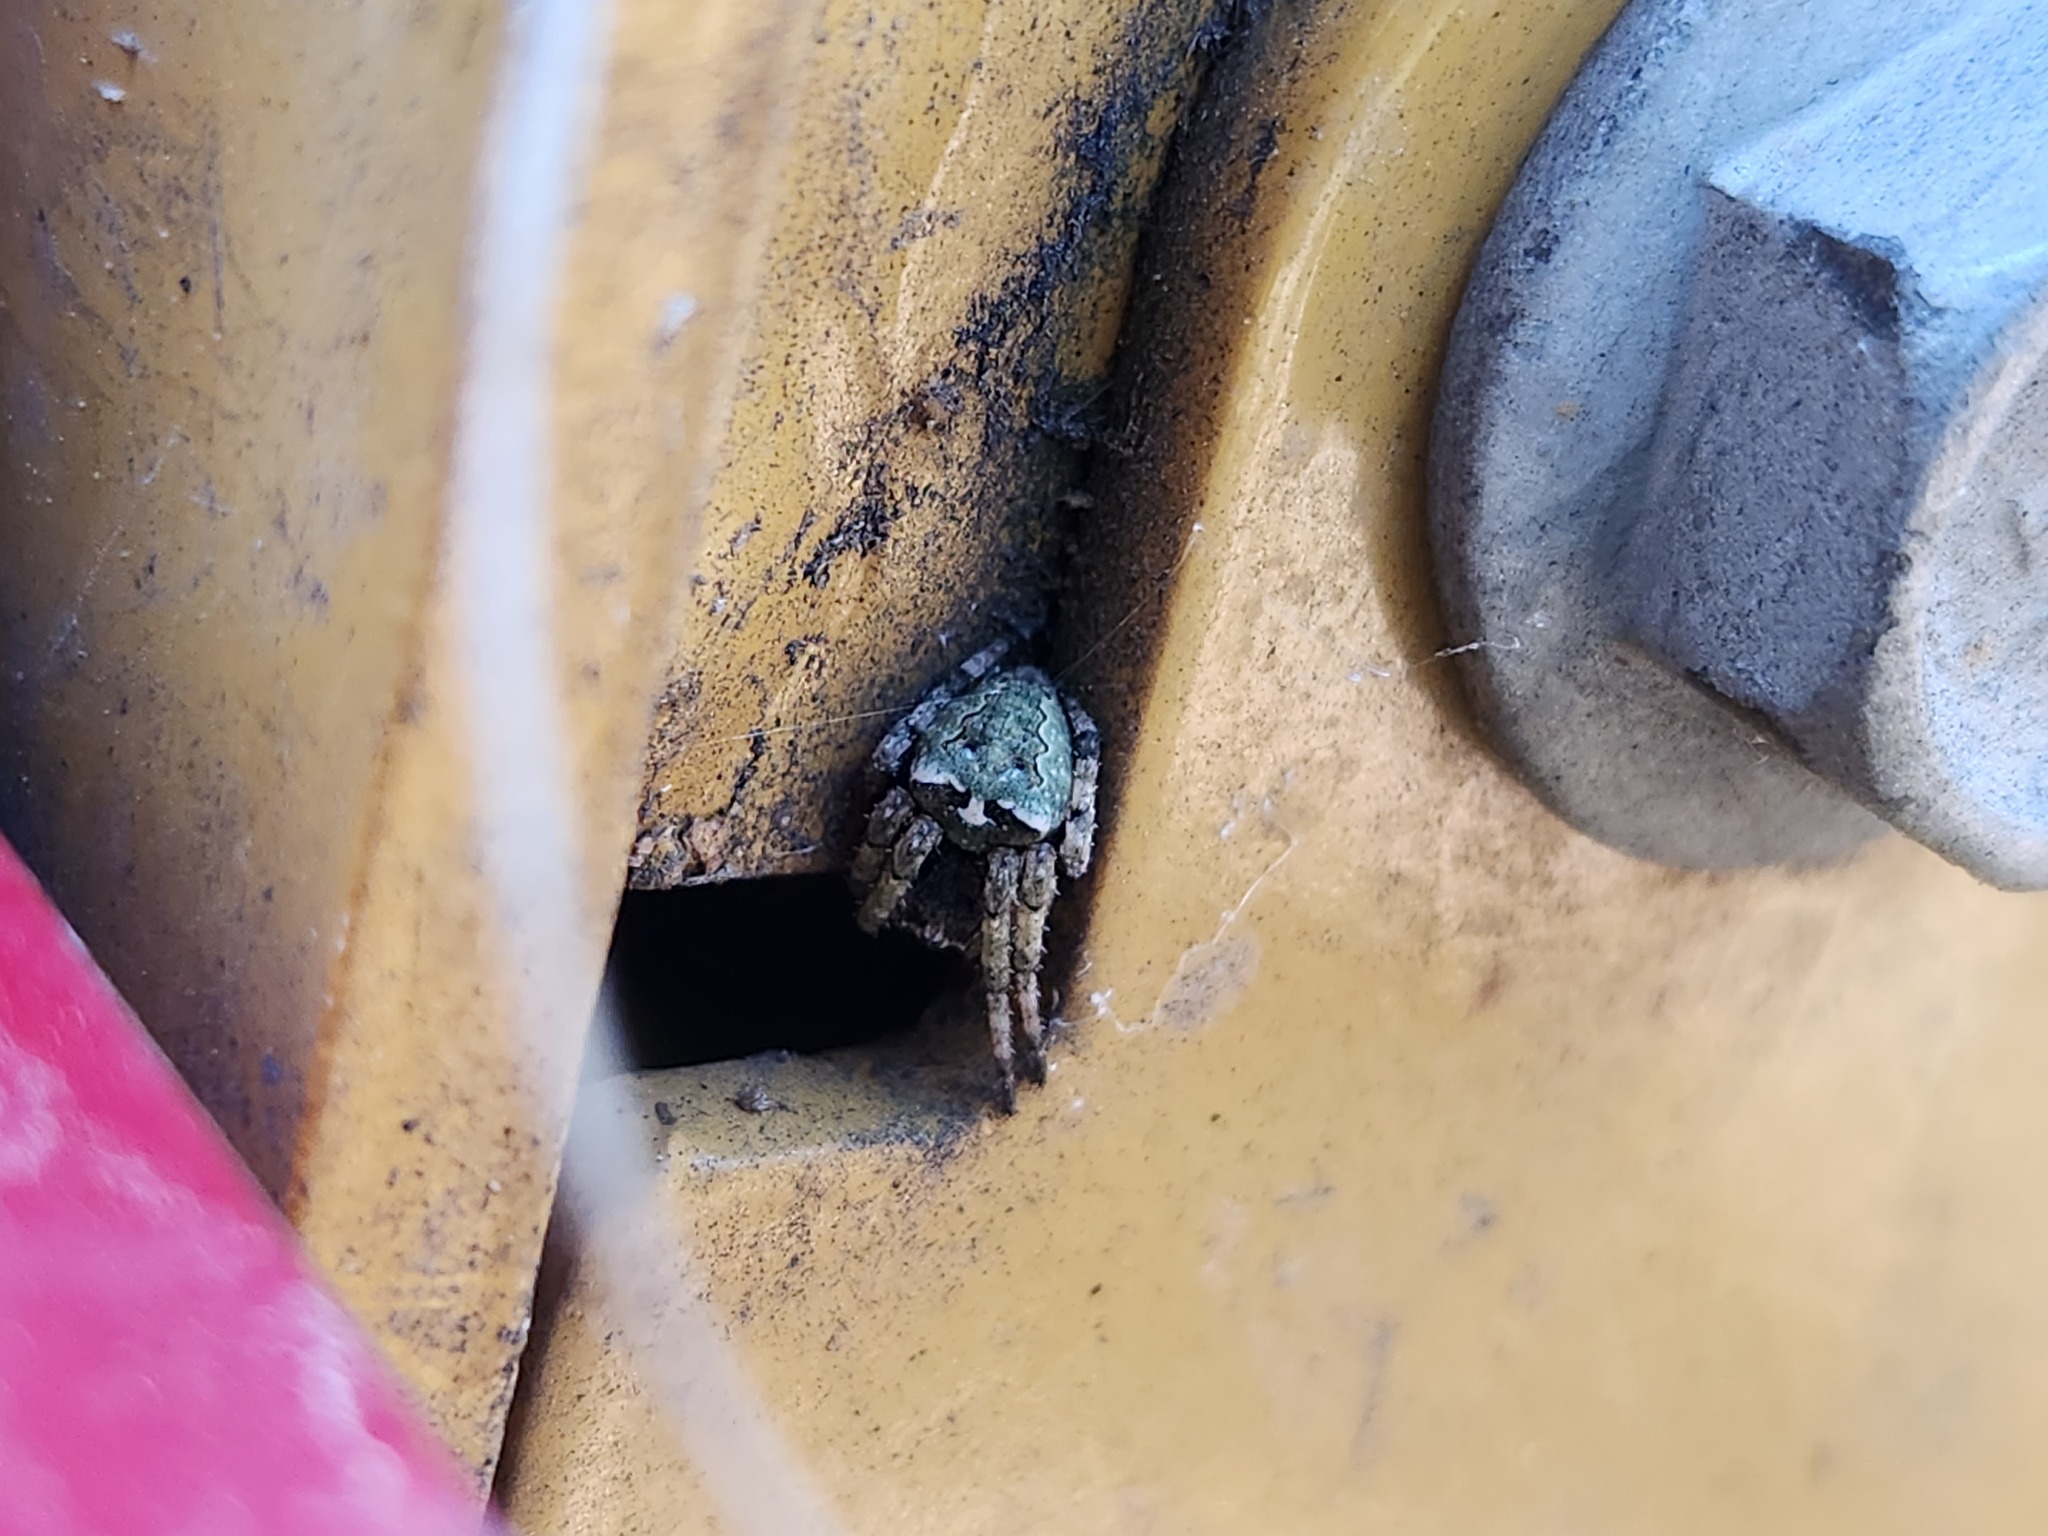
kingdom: Animalia
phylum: Arthropoda
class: Arachnida
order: Araneae
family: Araneidae
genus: Araneus
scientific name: Araneus bicentenarius
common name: Giant lichen orbweaver
